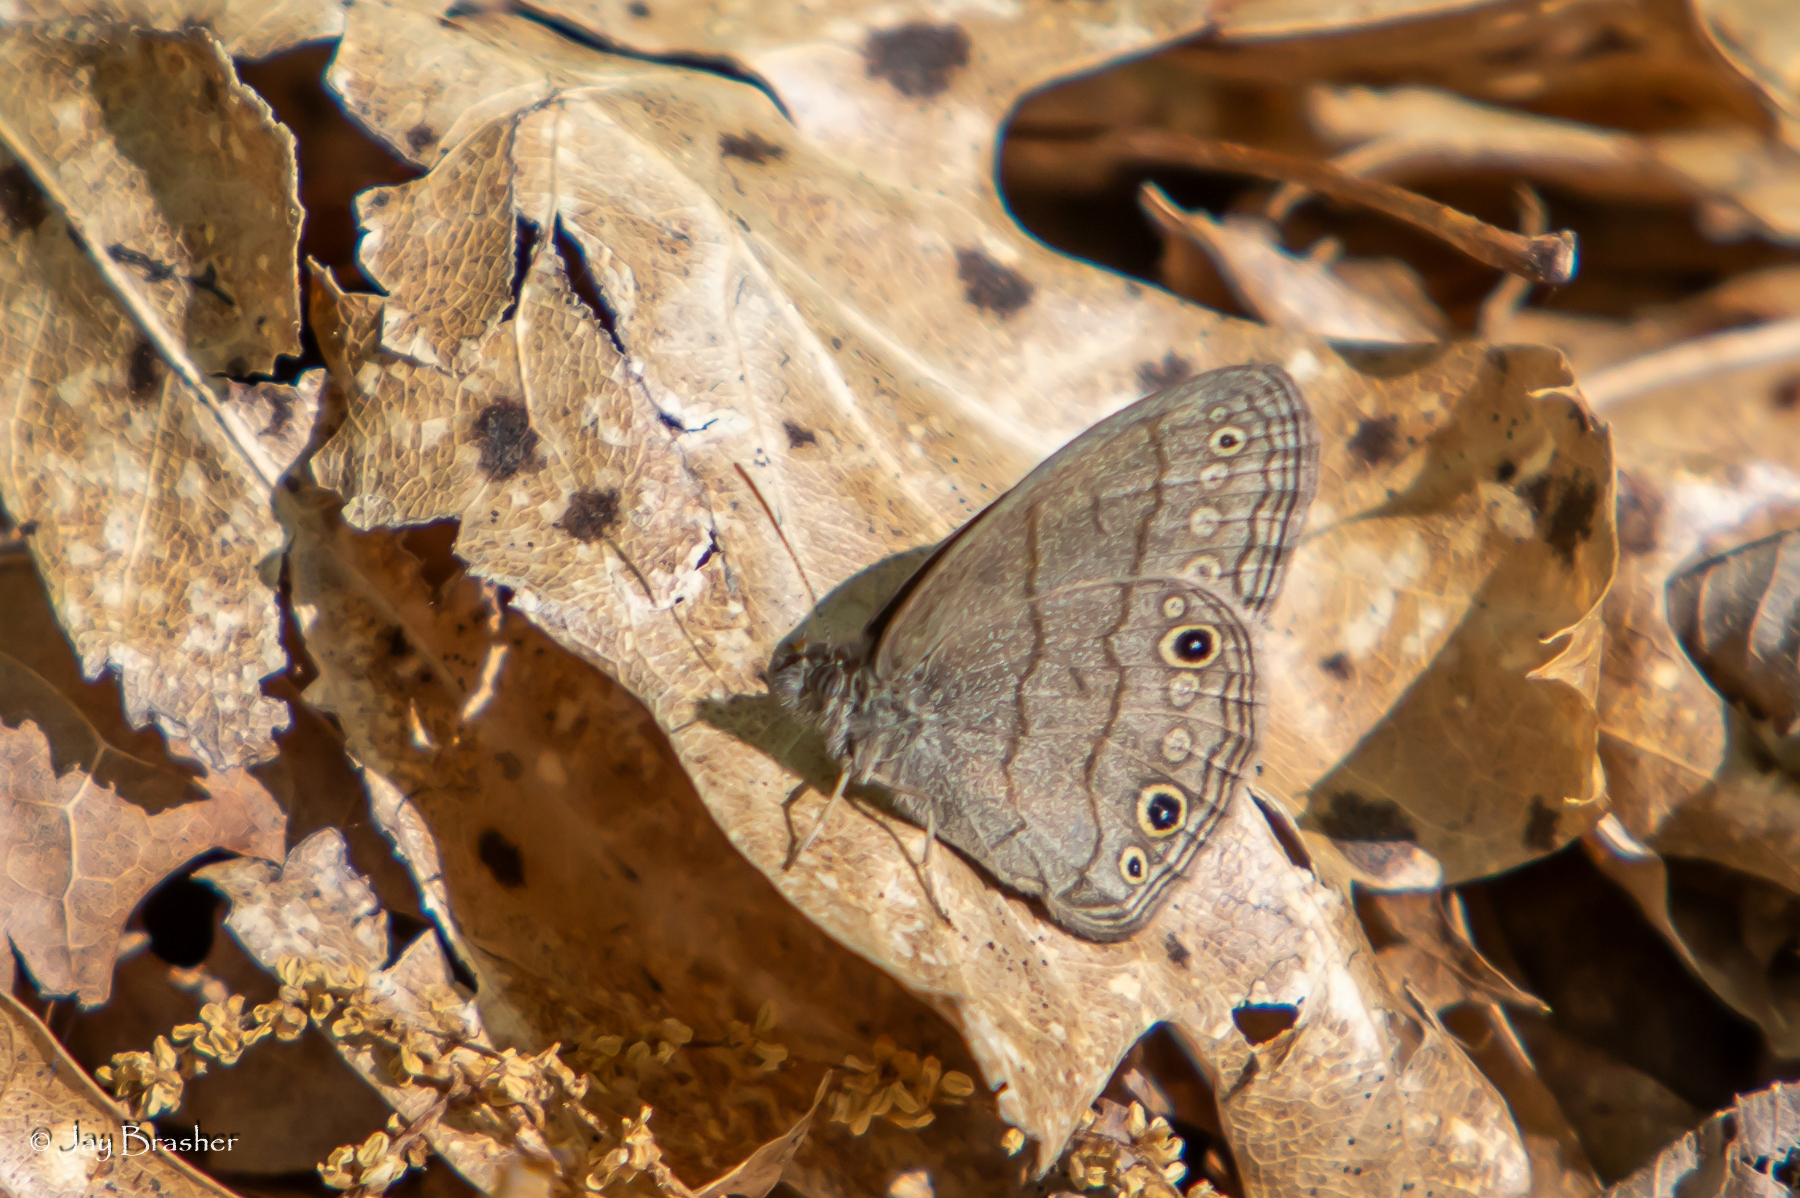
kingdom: Animalia
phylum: Arthropoda
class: Insecta
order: Lepidoptera
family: Nymphalidae
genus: Hermeuptychia
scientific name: Hermeuptychia hermes
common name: Hermes satyr
